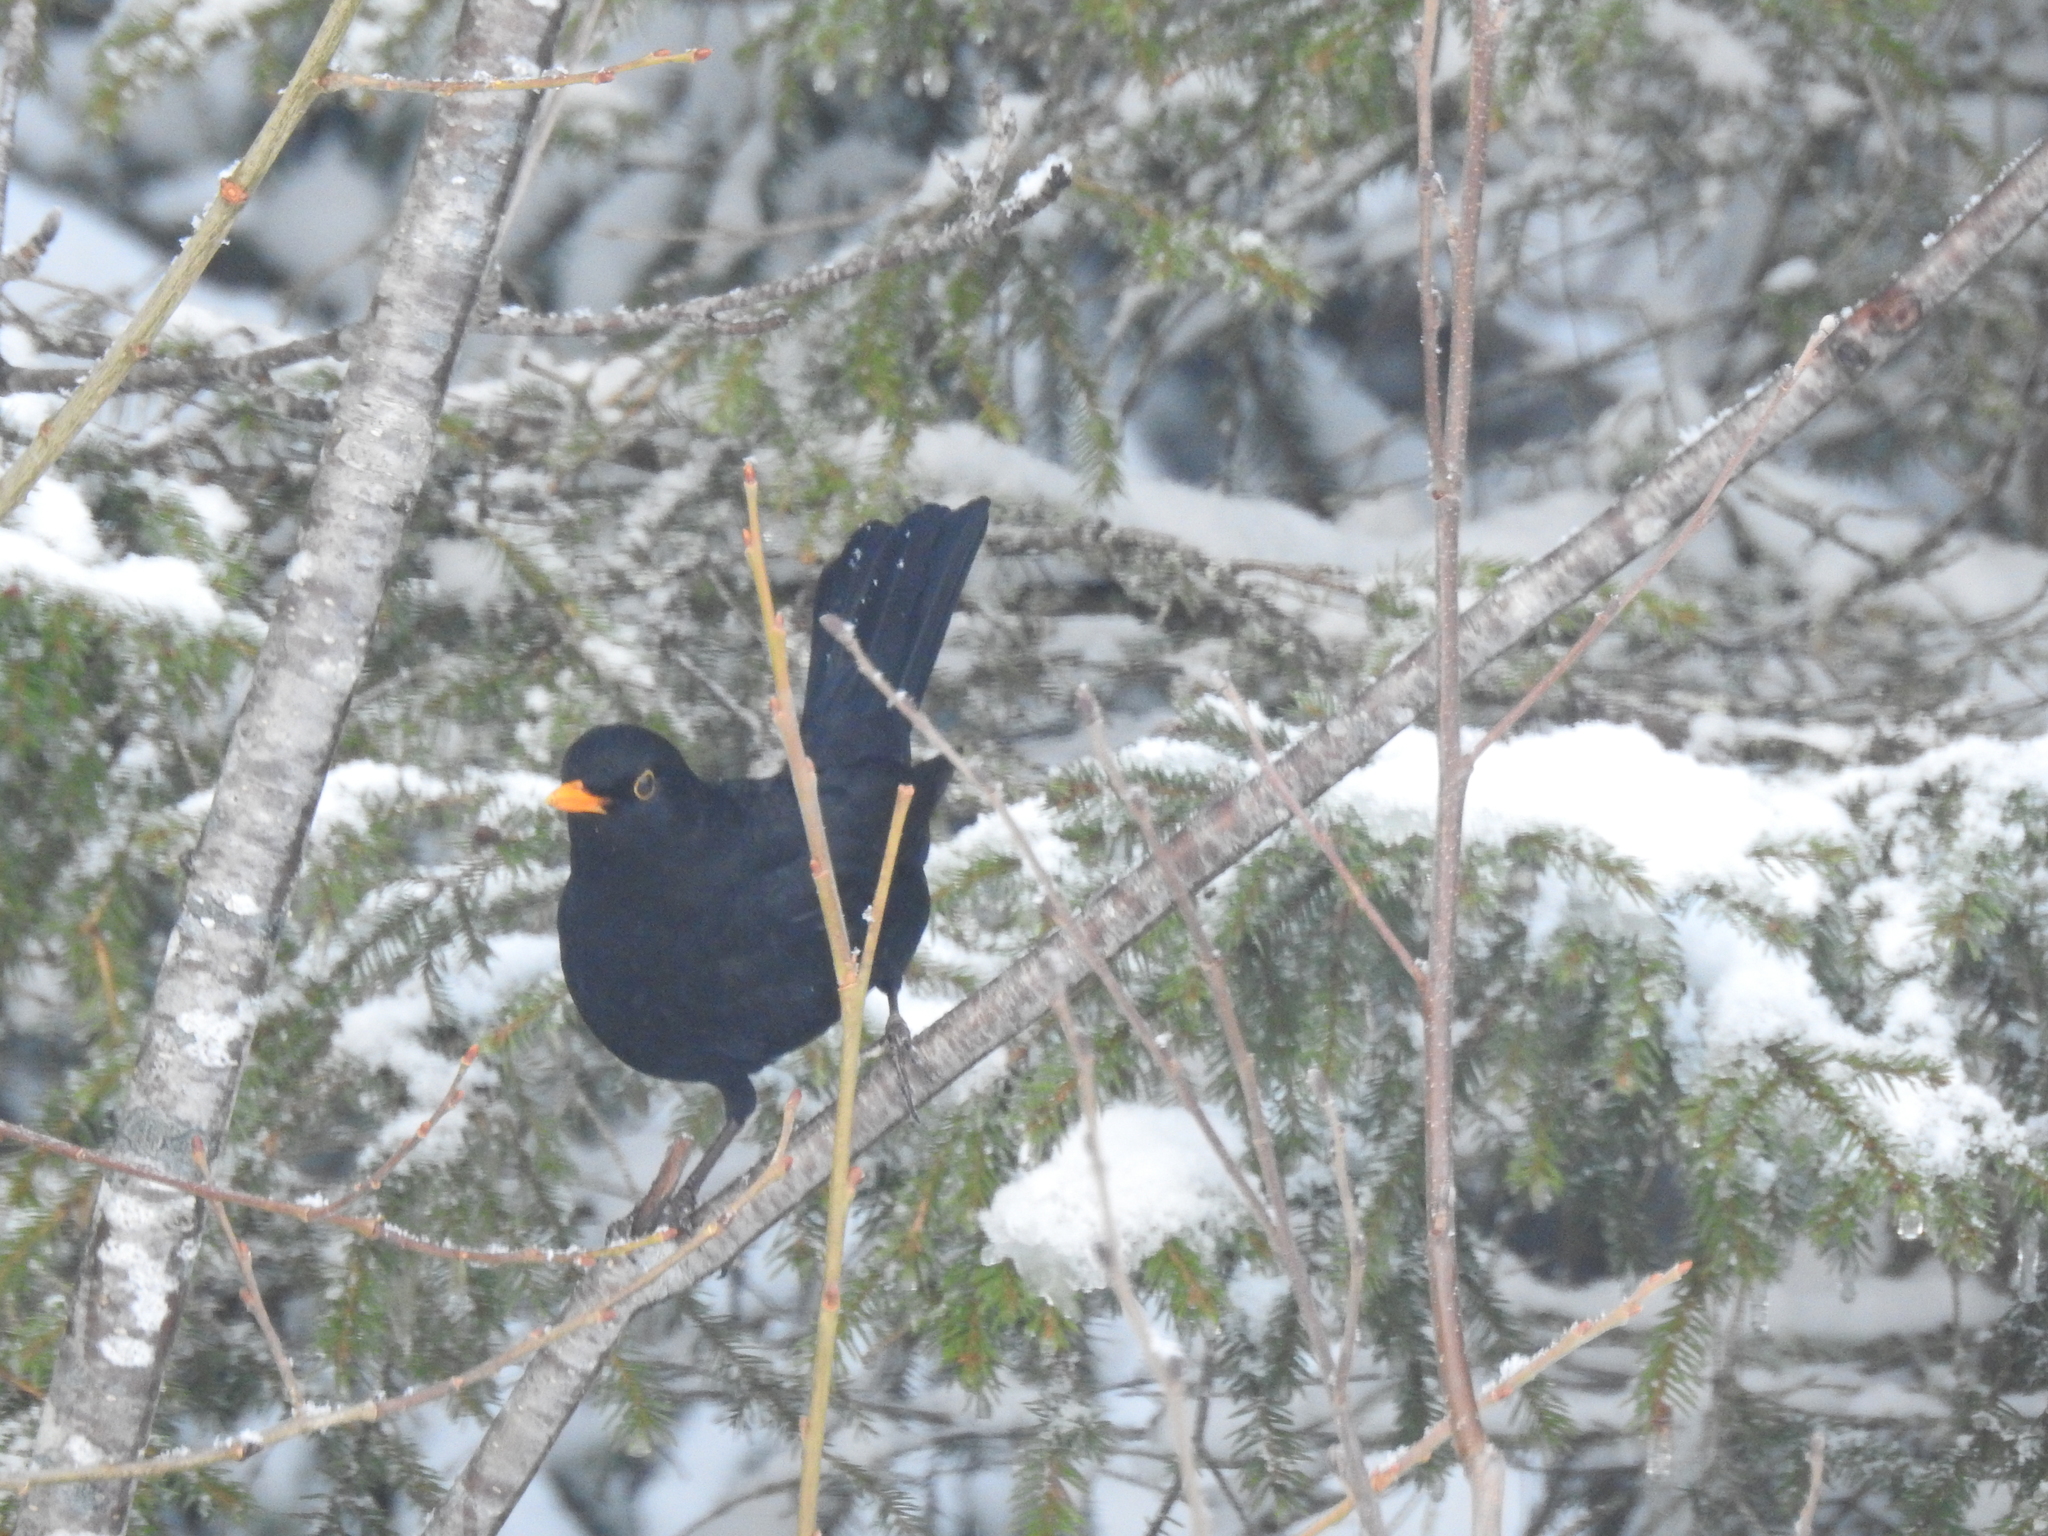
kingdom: Animalia
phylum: Chordata
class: Aves
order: Passeriformes
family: Turdidae
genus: Turdus
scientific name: Turdus merula
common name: Common blackbird
